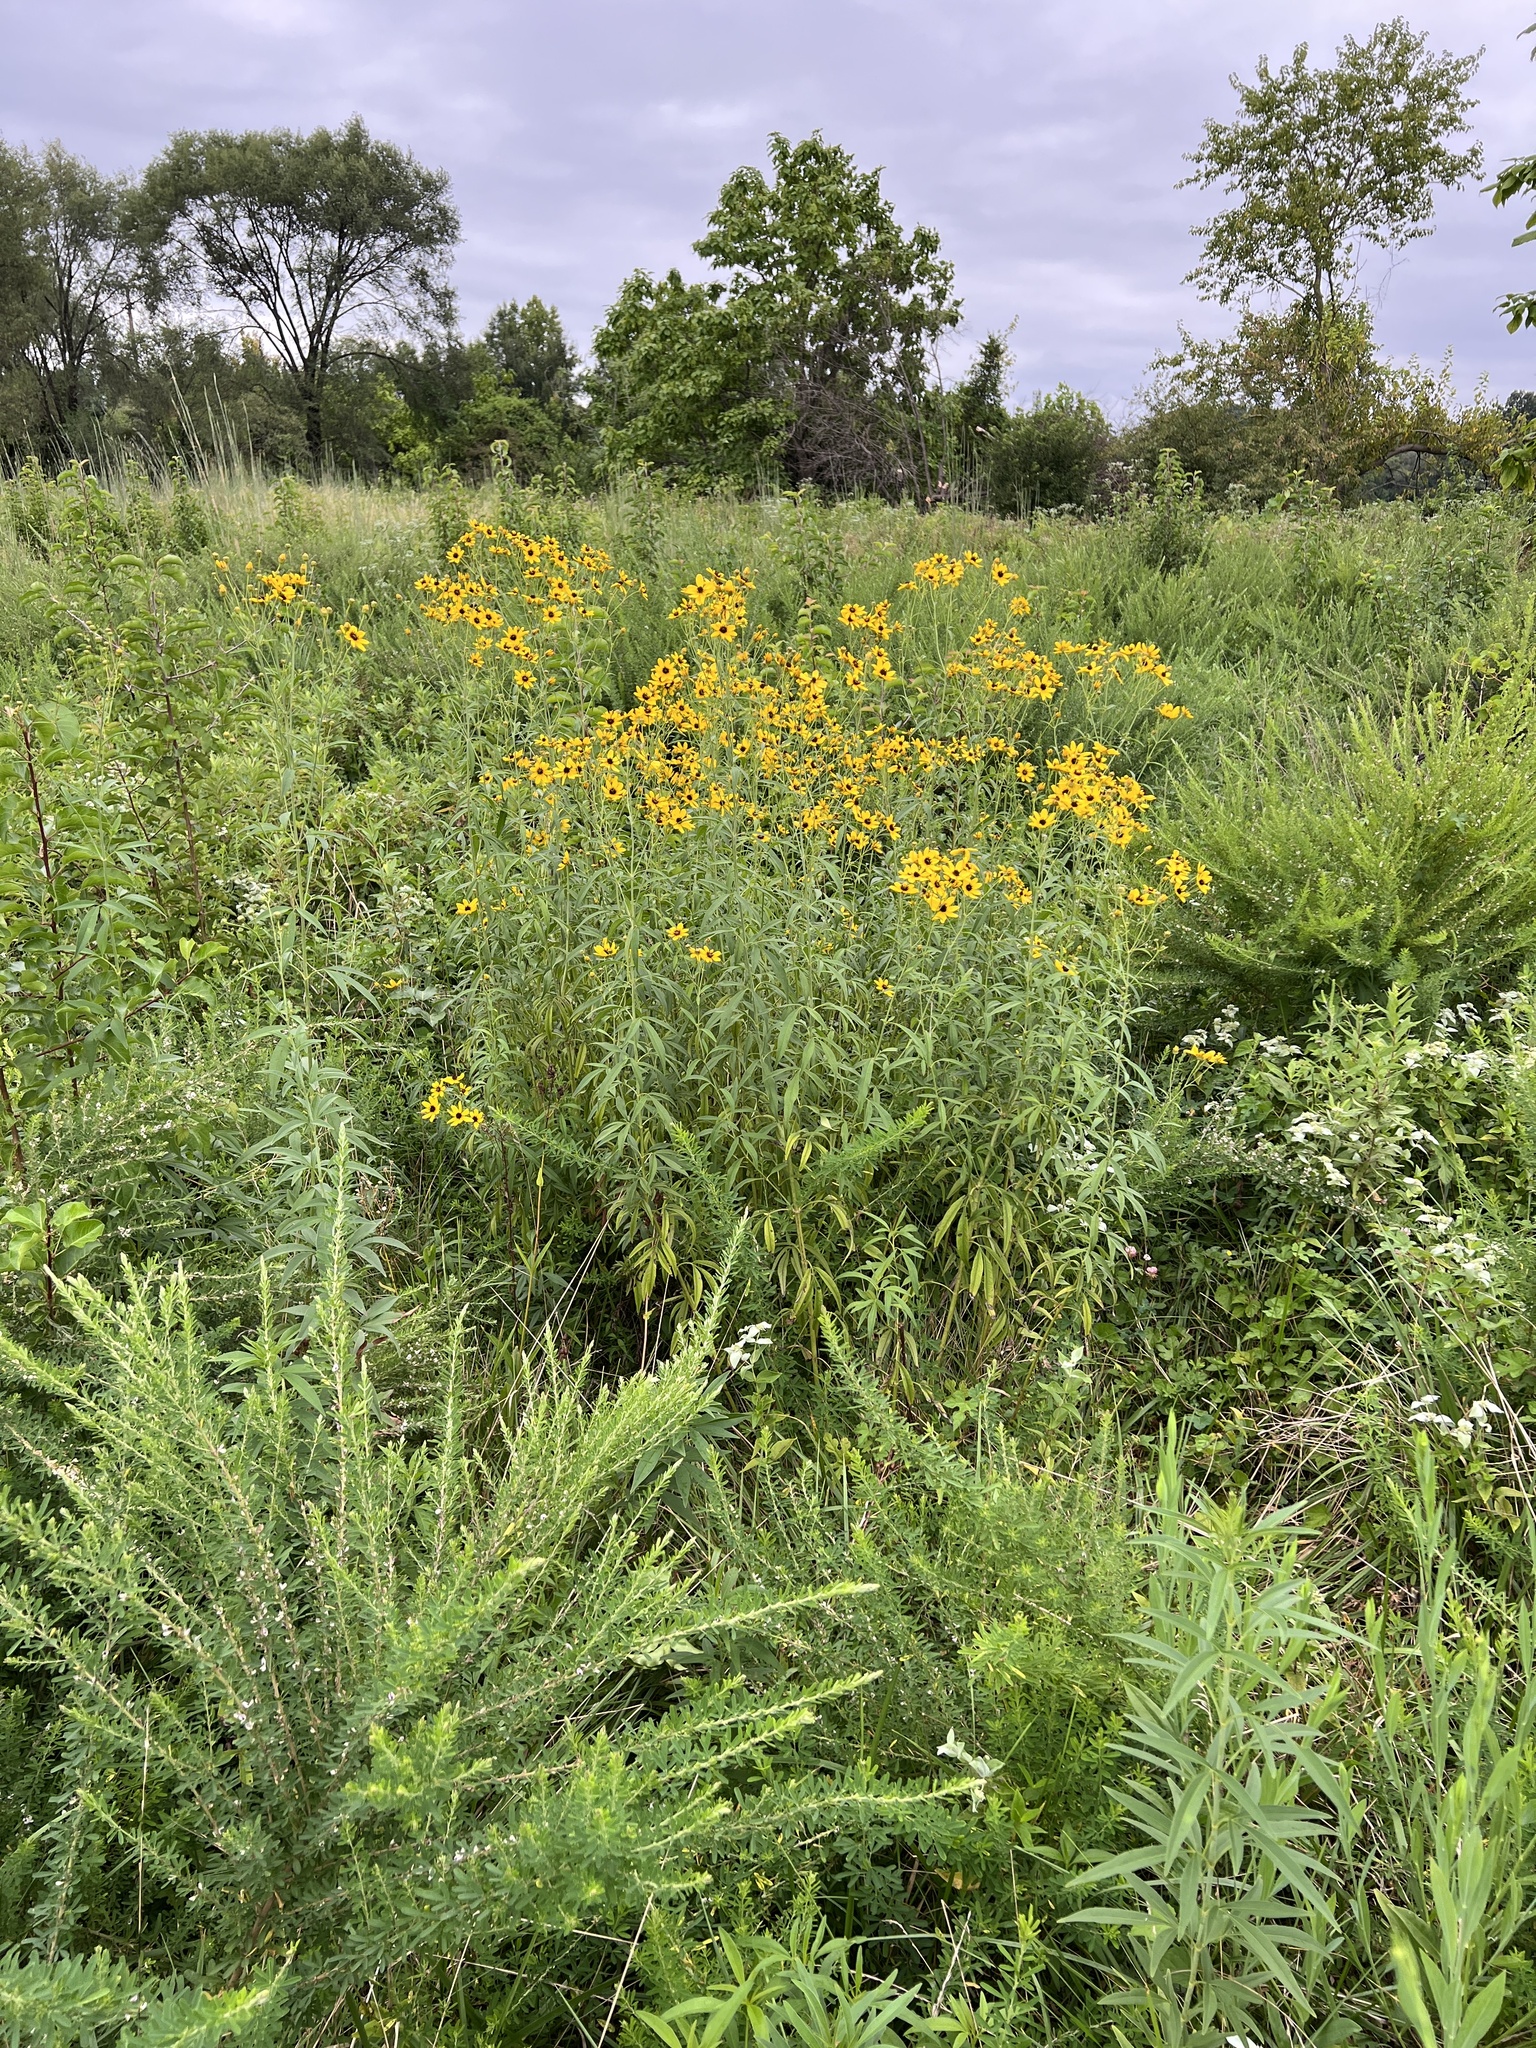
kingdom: Plantae
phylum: Tracheophyta
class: Magnoliopsida
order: Asterales
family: Asteraceae
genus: Coreopsis
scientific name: Coreopsis tripteris
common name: Tall coreopsis
